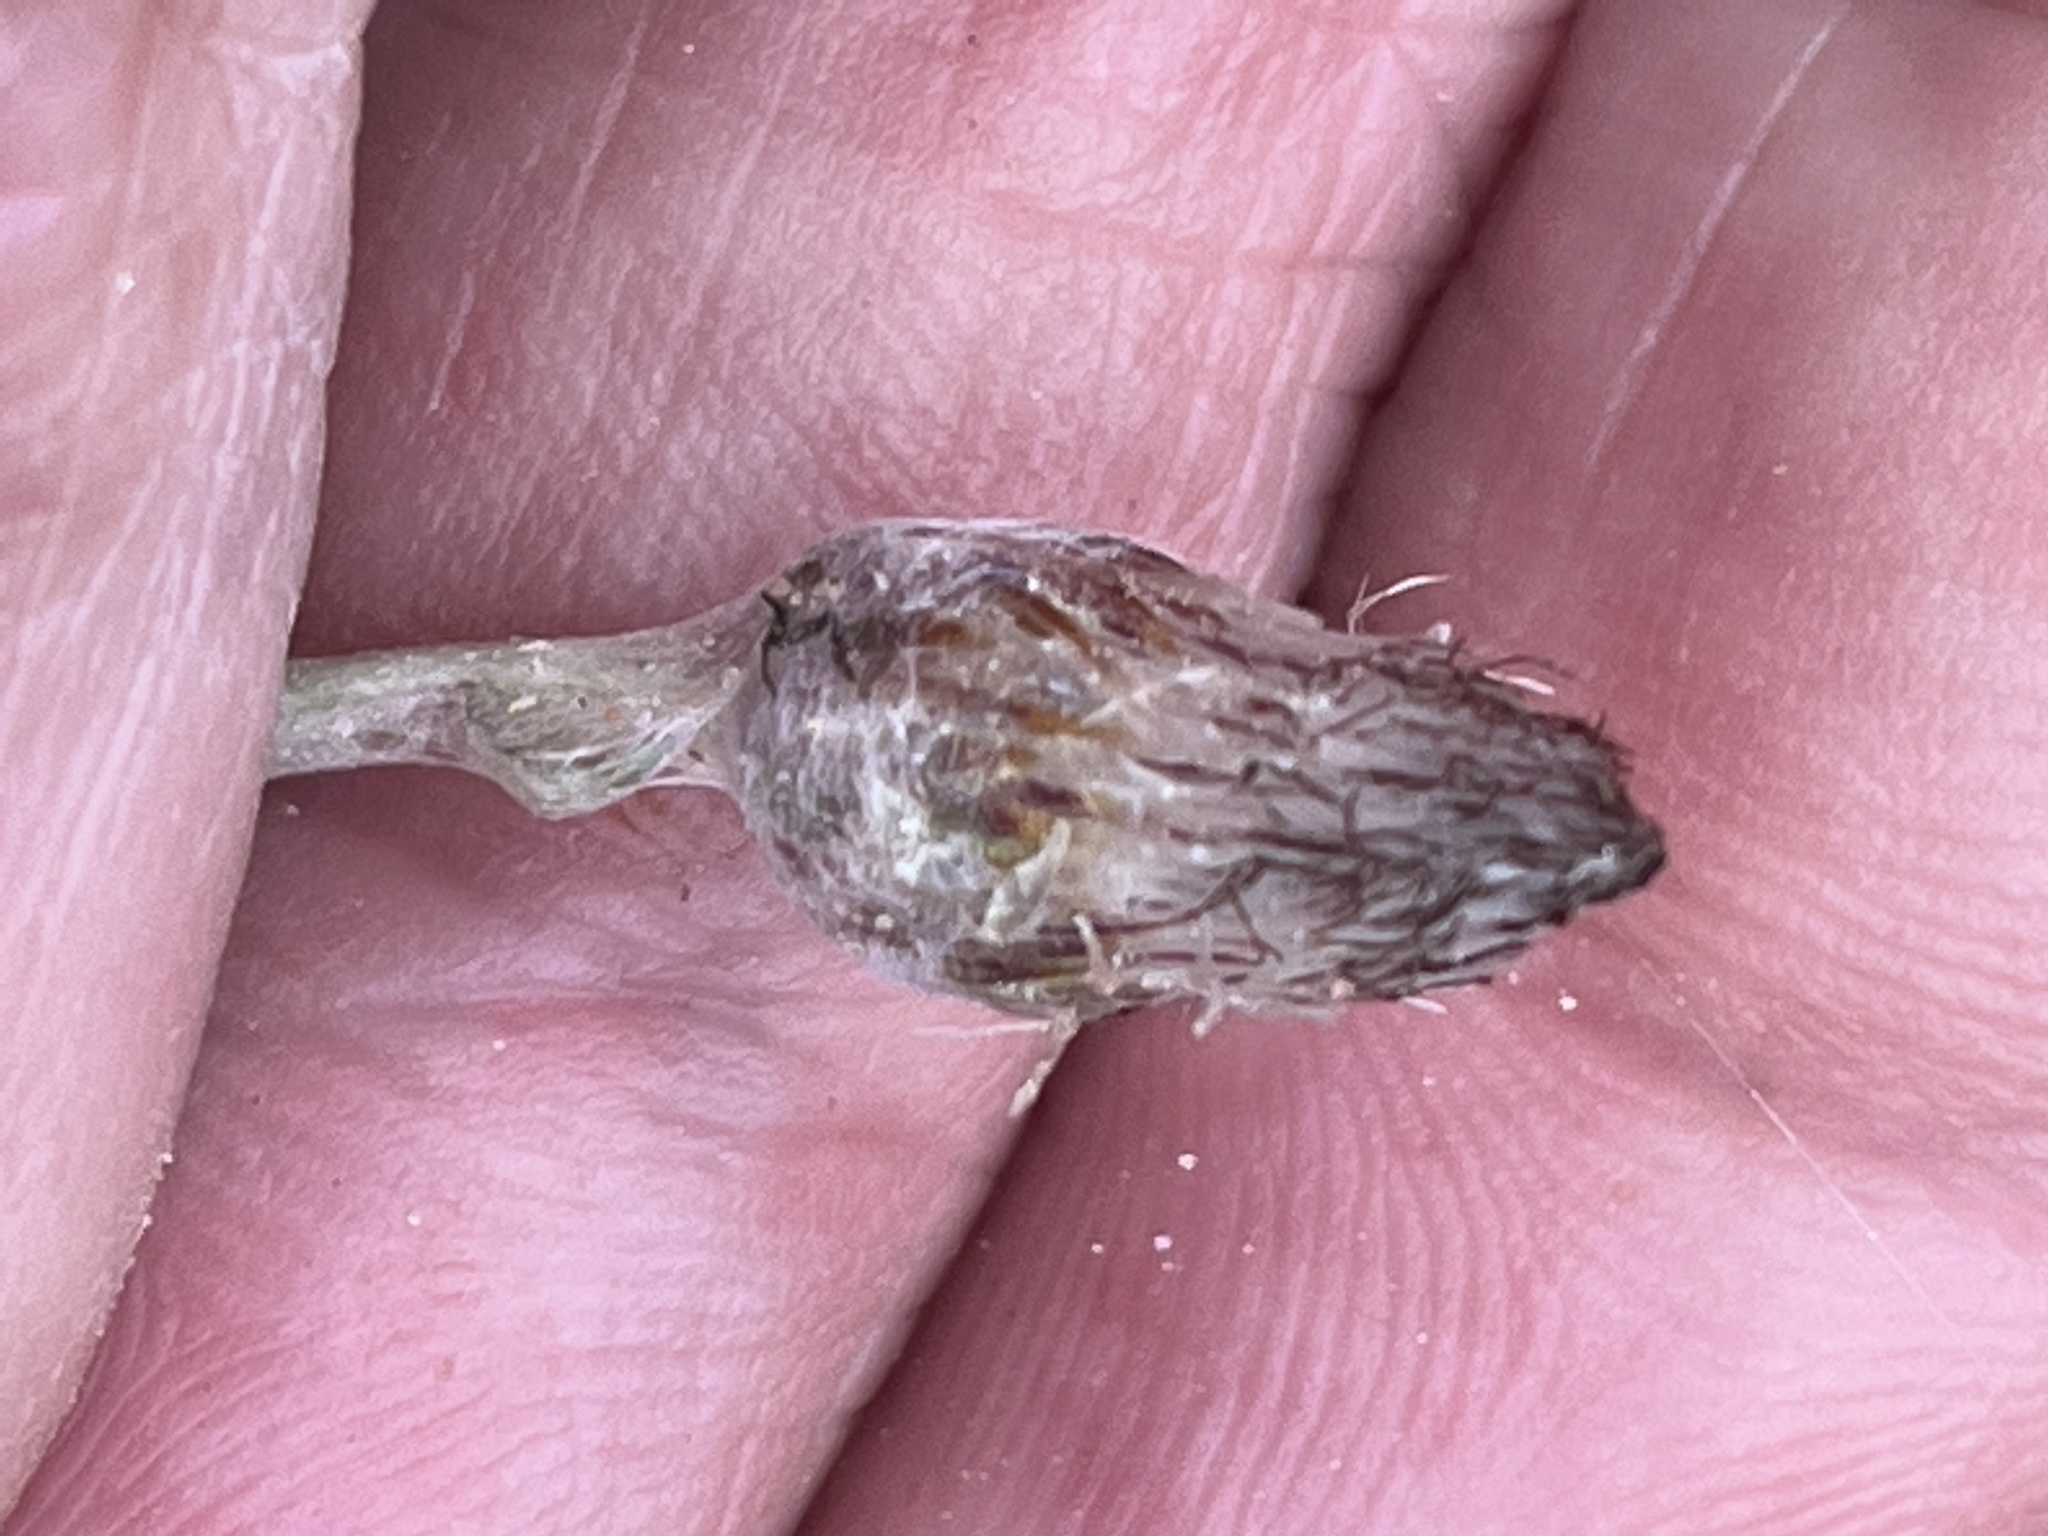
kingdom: Plantae
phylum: Tracheophyta
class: Magnoliopsida
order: Asterales
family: Asteraceae
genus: Antennaria
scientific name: Antennaria solitaria
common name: Single-head pussytoes
